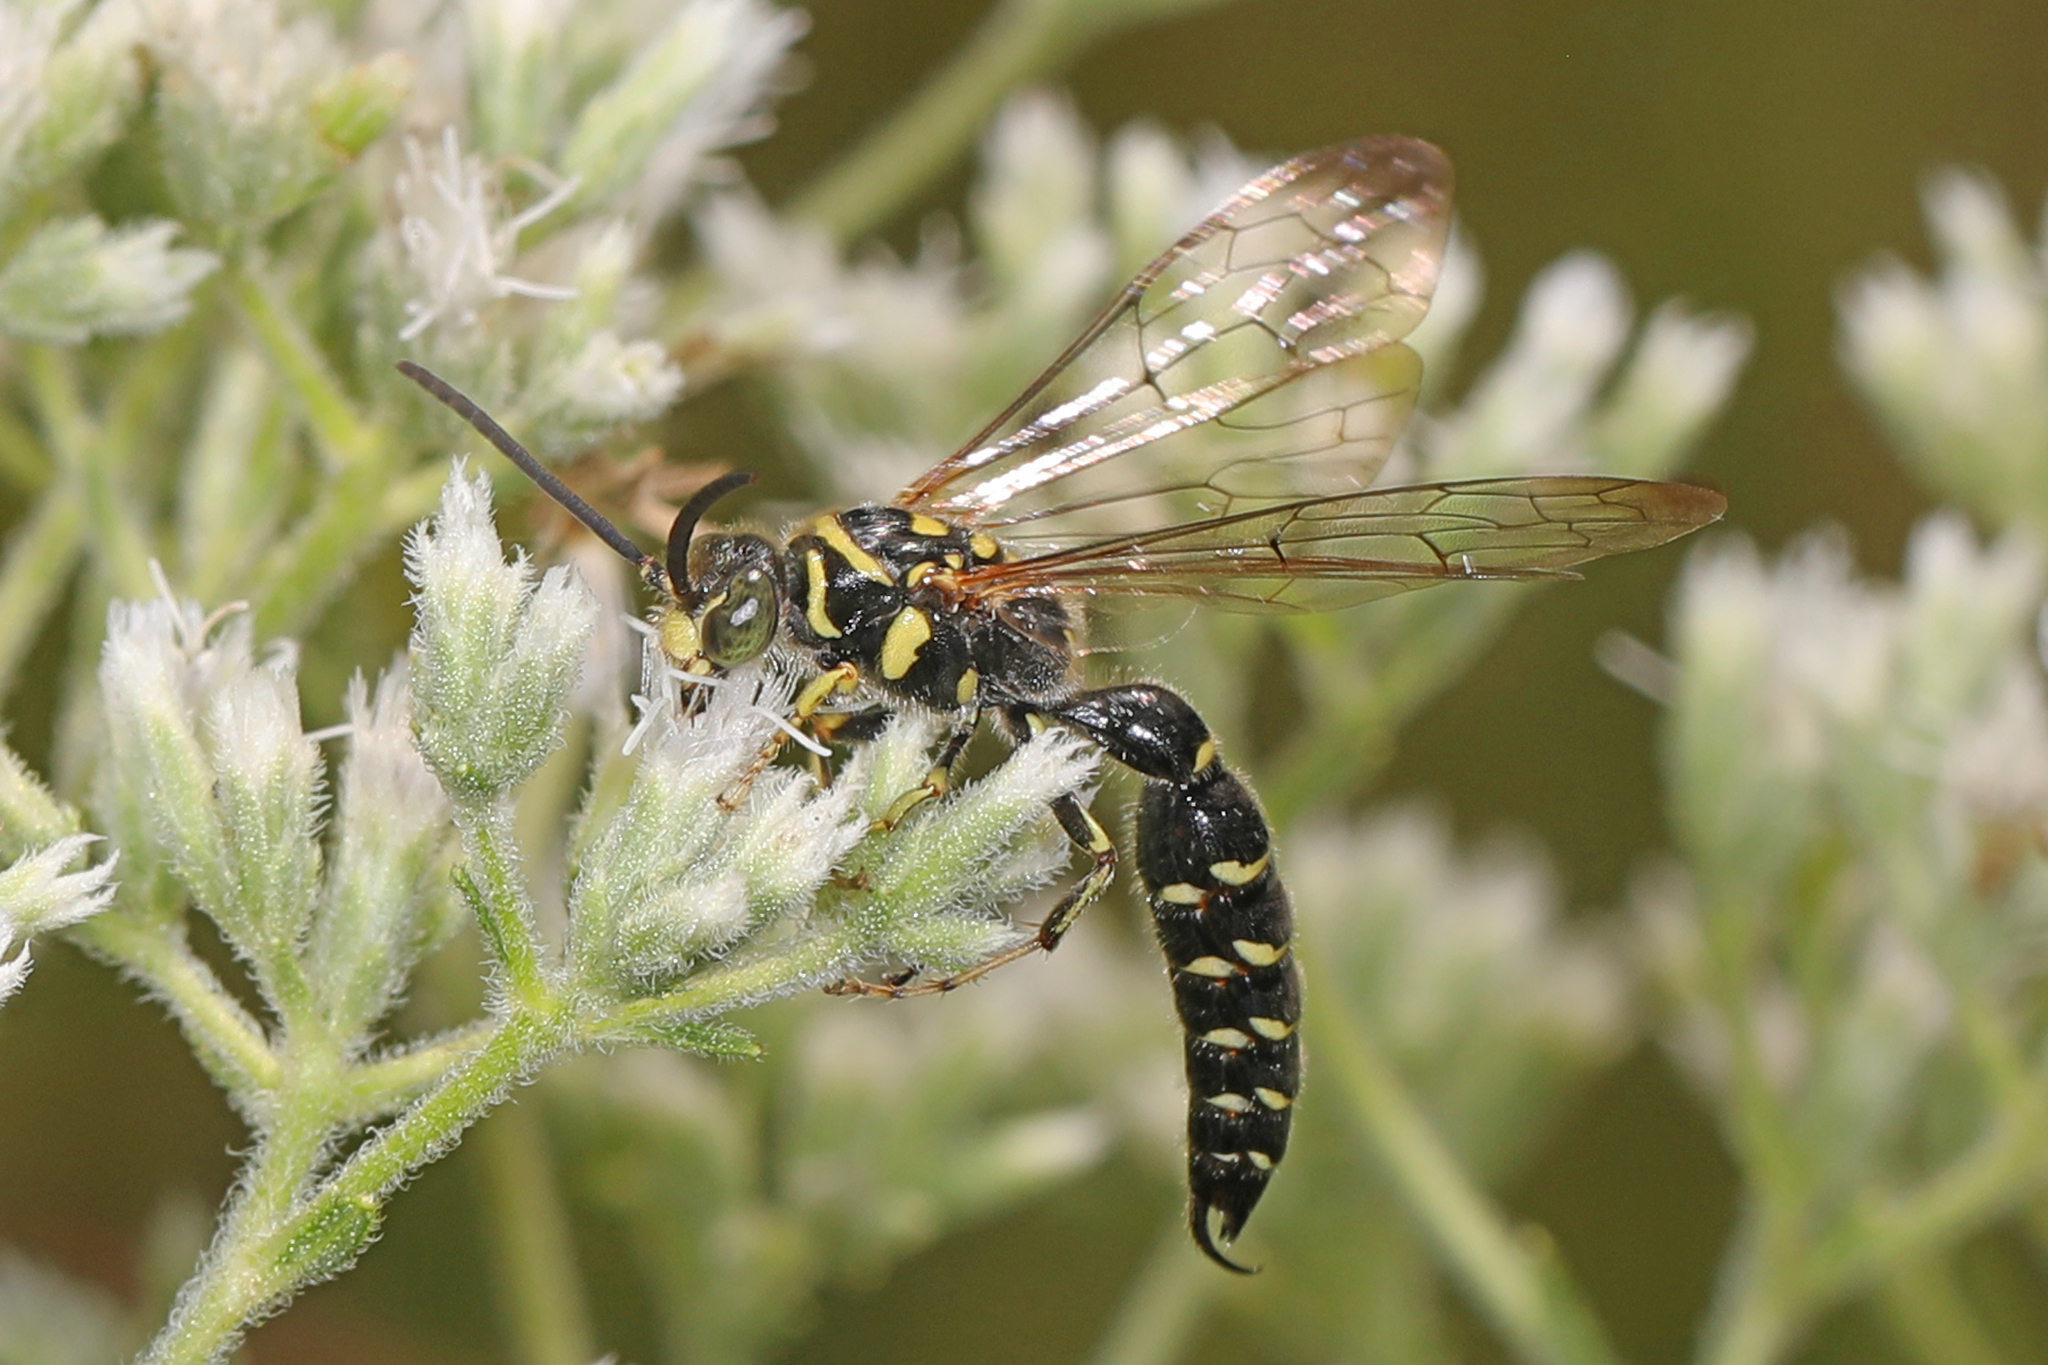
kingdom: Animalia
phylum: Arthropoda
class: Insecta
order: Hymenoptera
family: Tiphiidae
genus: Myzinum
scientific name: Myzinum
